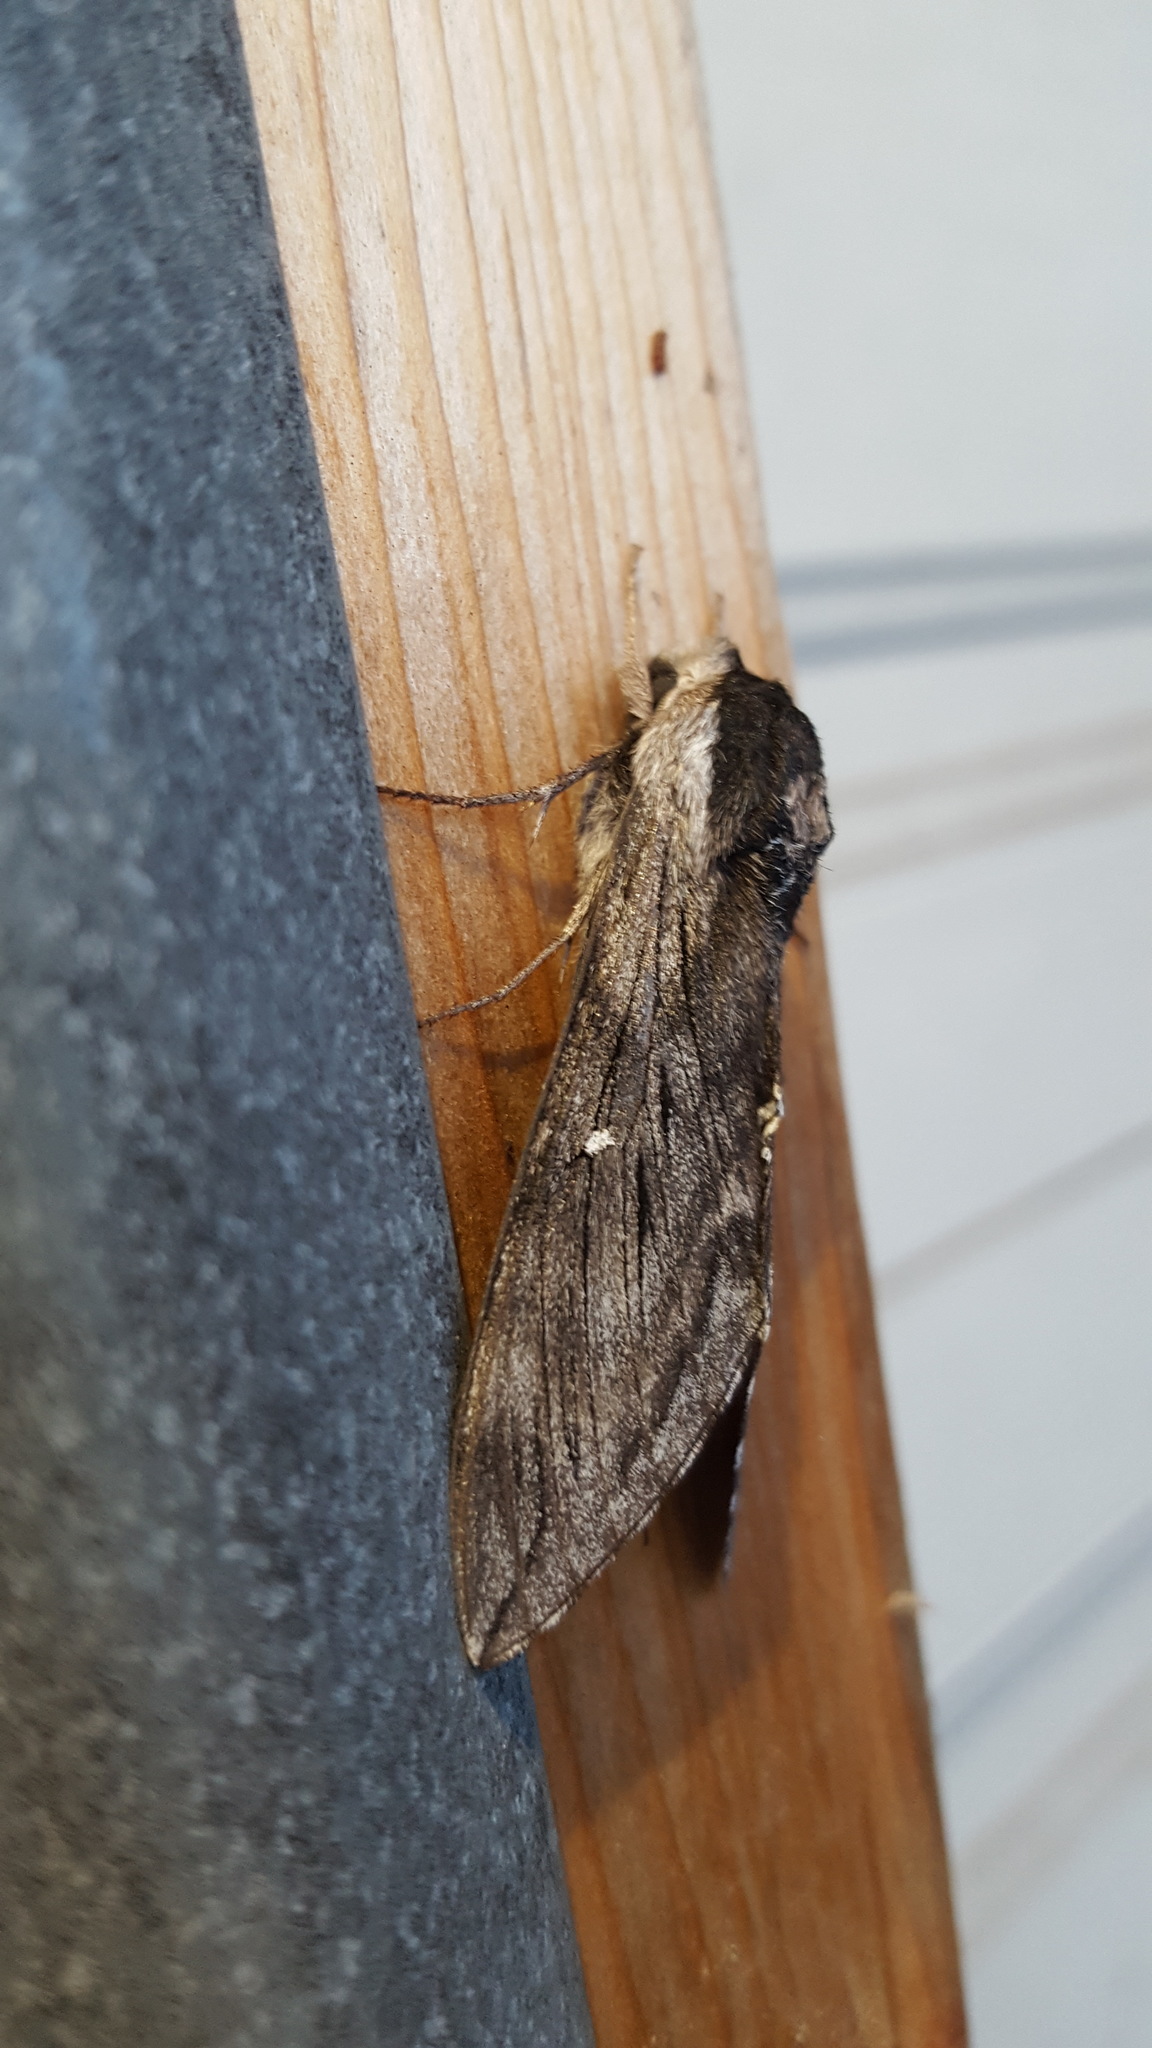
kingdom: Animalia
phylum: Arthropoda
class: Insecta
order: Lepidoptera
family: Sphingidae
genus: Sphinx
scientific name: Sphinx poecila
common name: Northern apple sphinx
